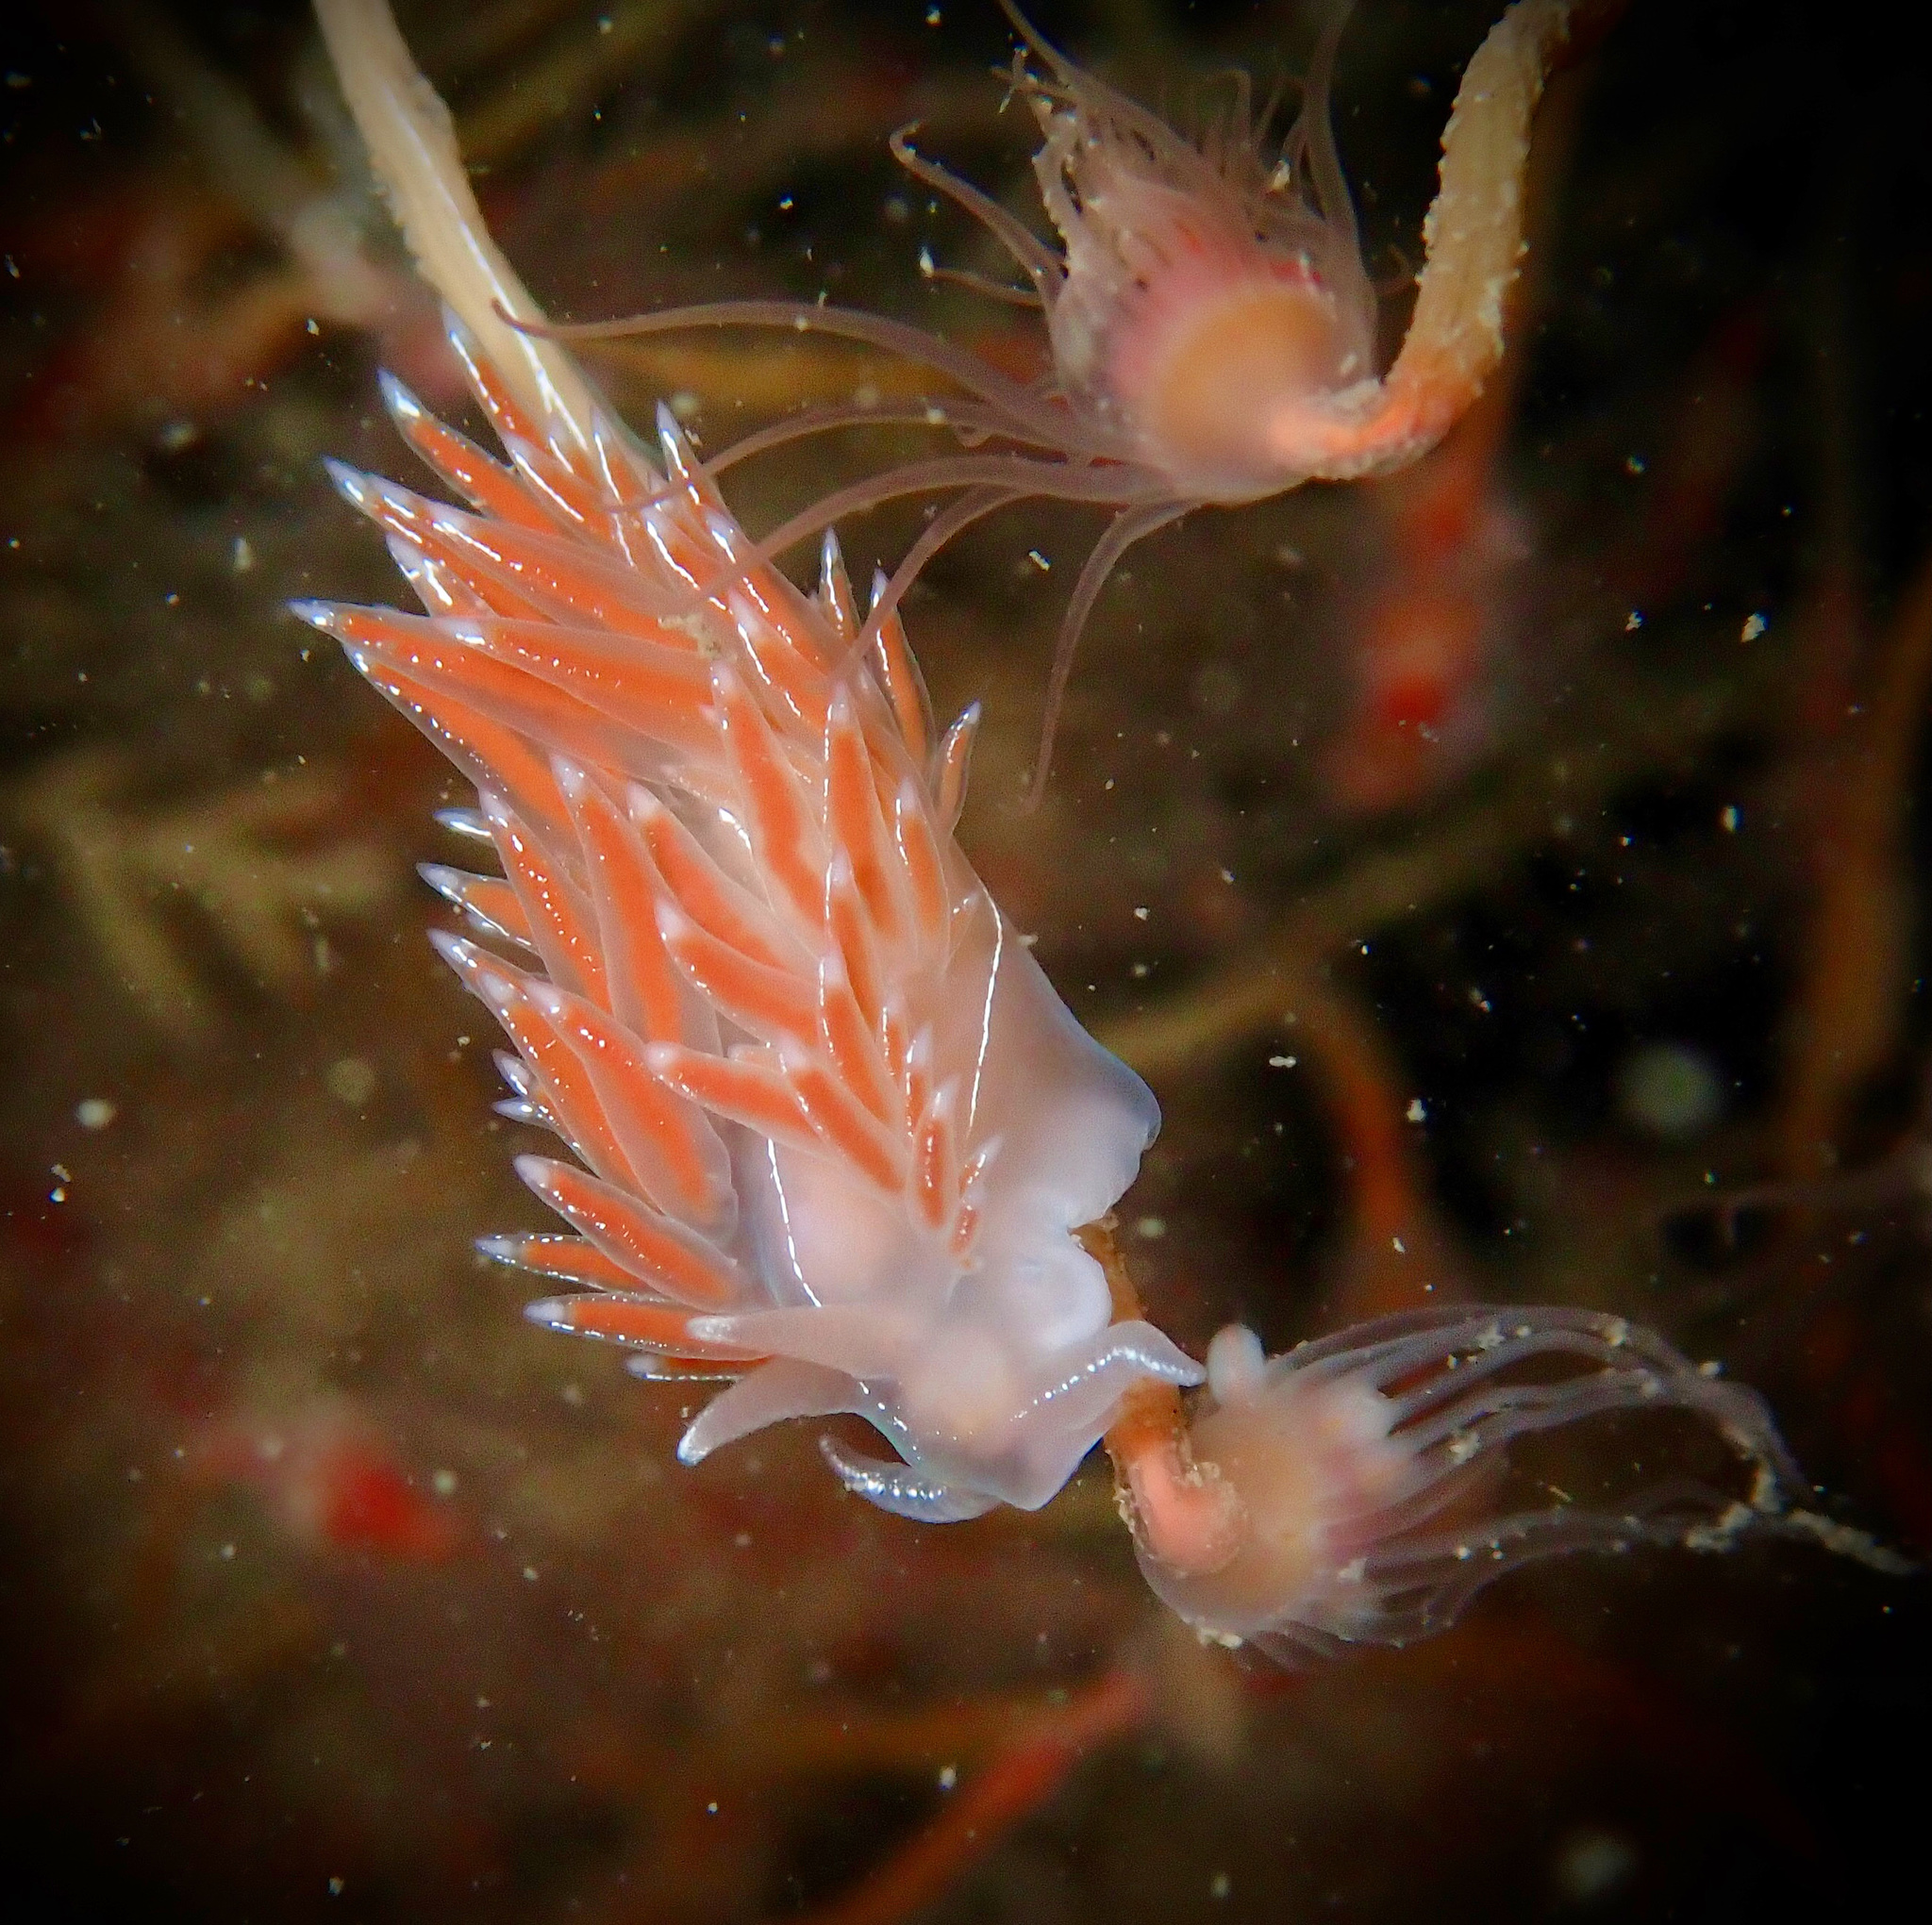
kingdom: Animalia
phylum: Mollusca
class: Gastropoda
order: Nudibranchia
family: Coryphellidae
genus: Coryphella
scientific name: Coryphella chriskaugei
